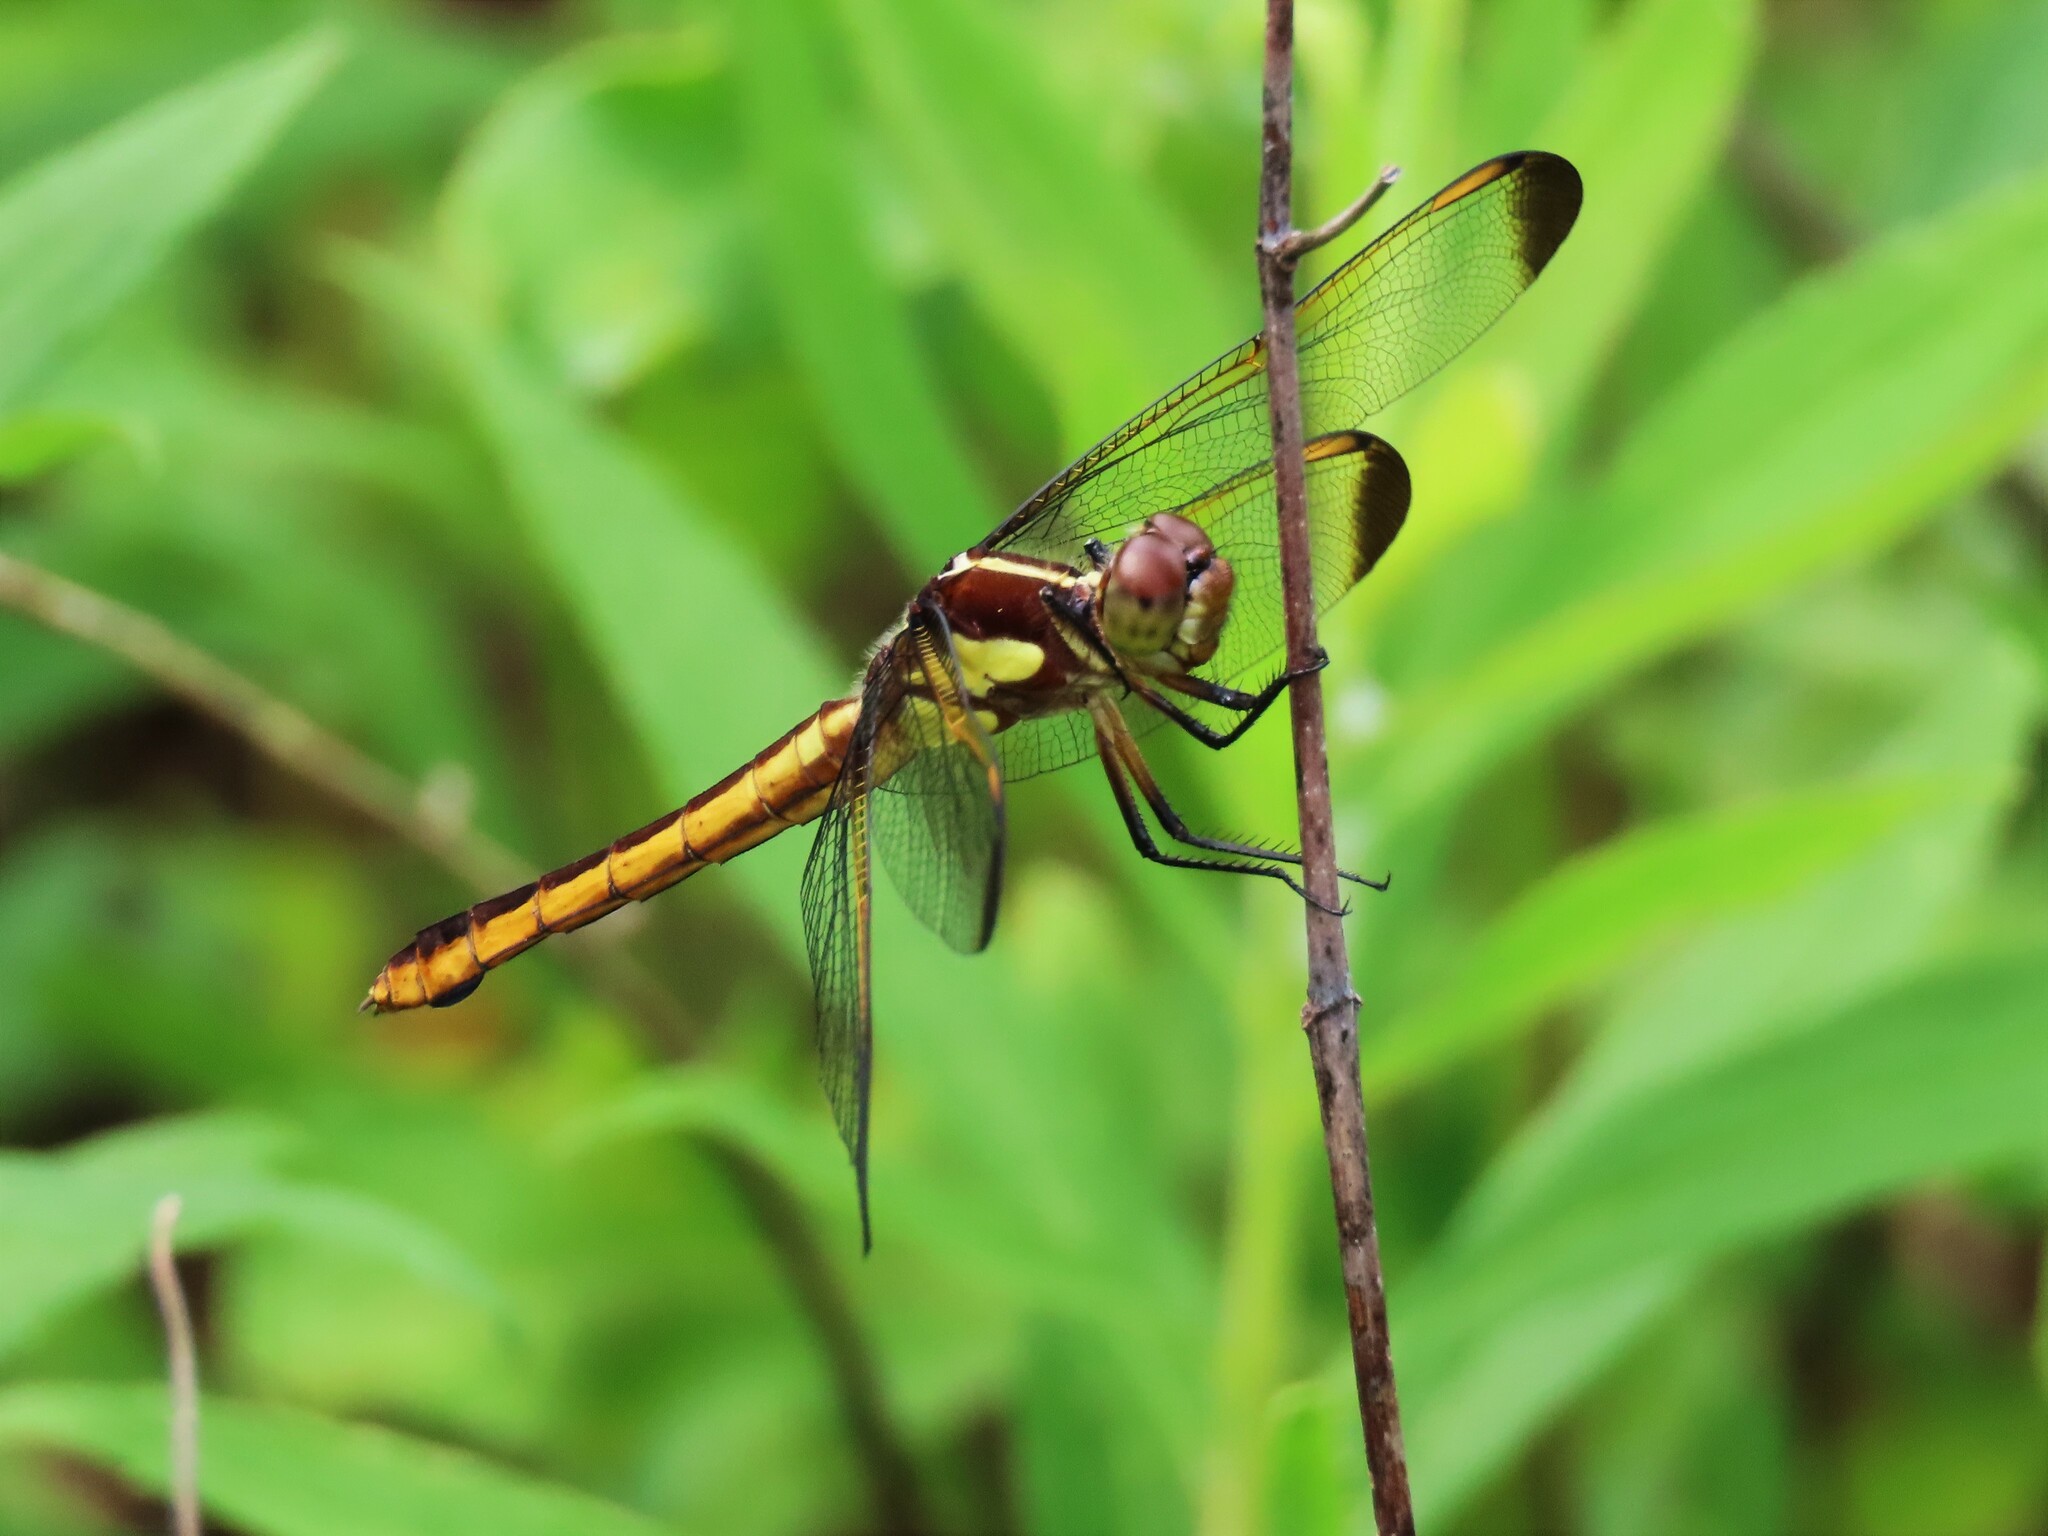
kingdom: Animalia
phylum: Arthropoda
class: Insecta
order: Odonata
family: Libellulidae
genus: Libellula
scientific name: Libellula flavida
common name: Yellow-sided skimmer
